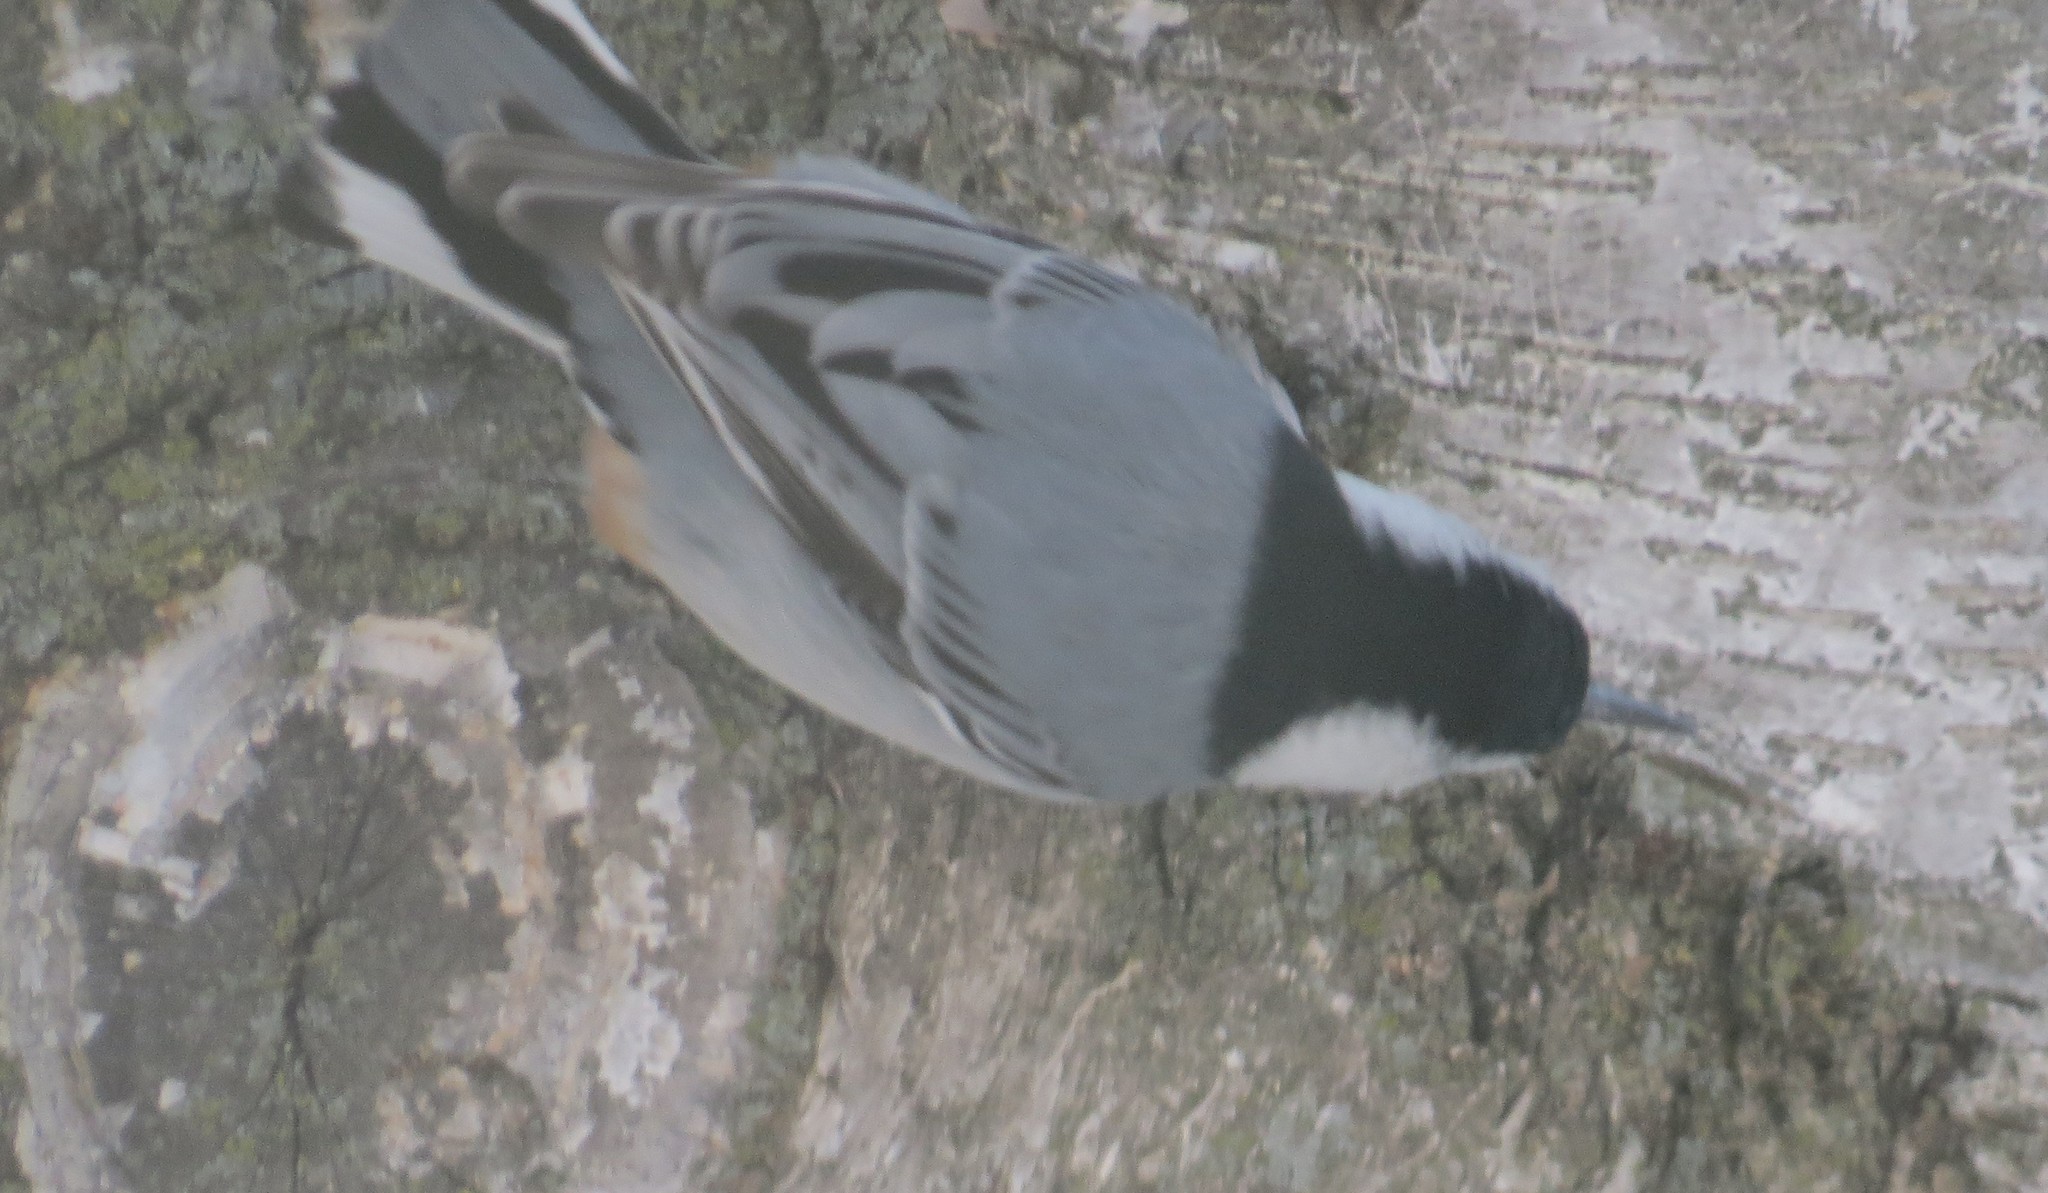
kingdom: Animalia
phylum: Chordata
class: Aves
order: Passeriformes
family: Sittidae
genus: Sitta
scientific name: Sitta carolinensis
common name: White-breasted nuthatch
